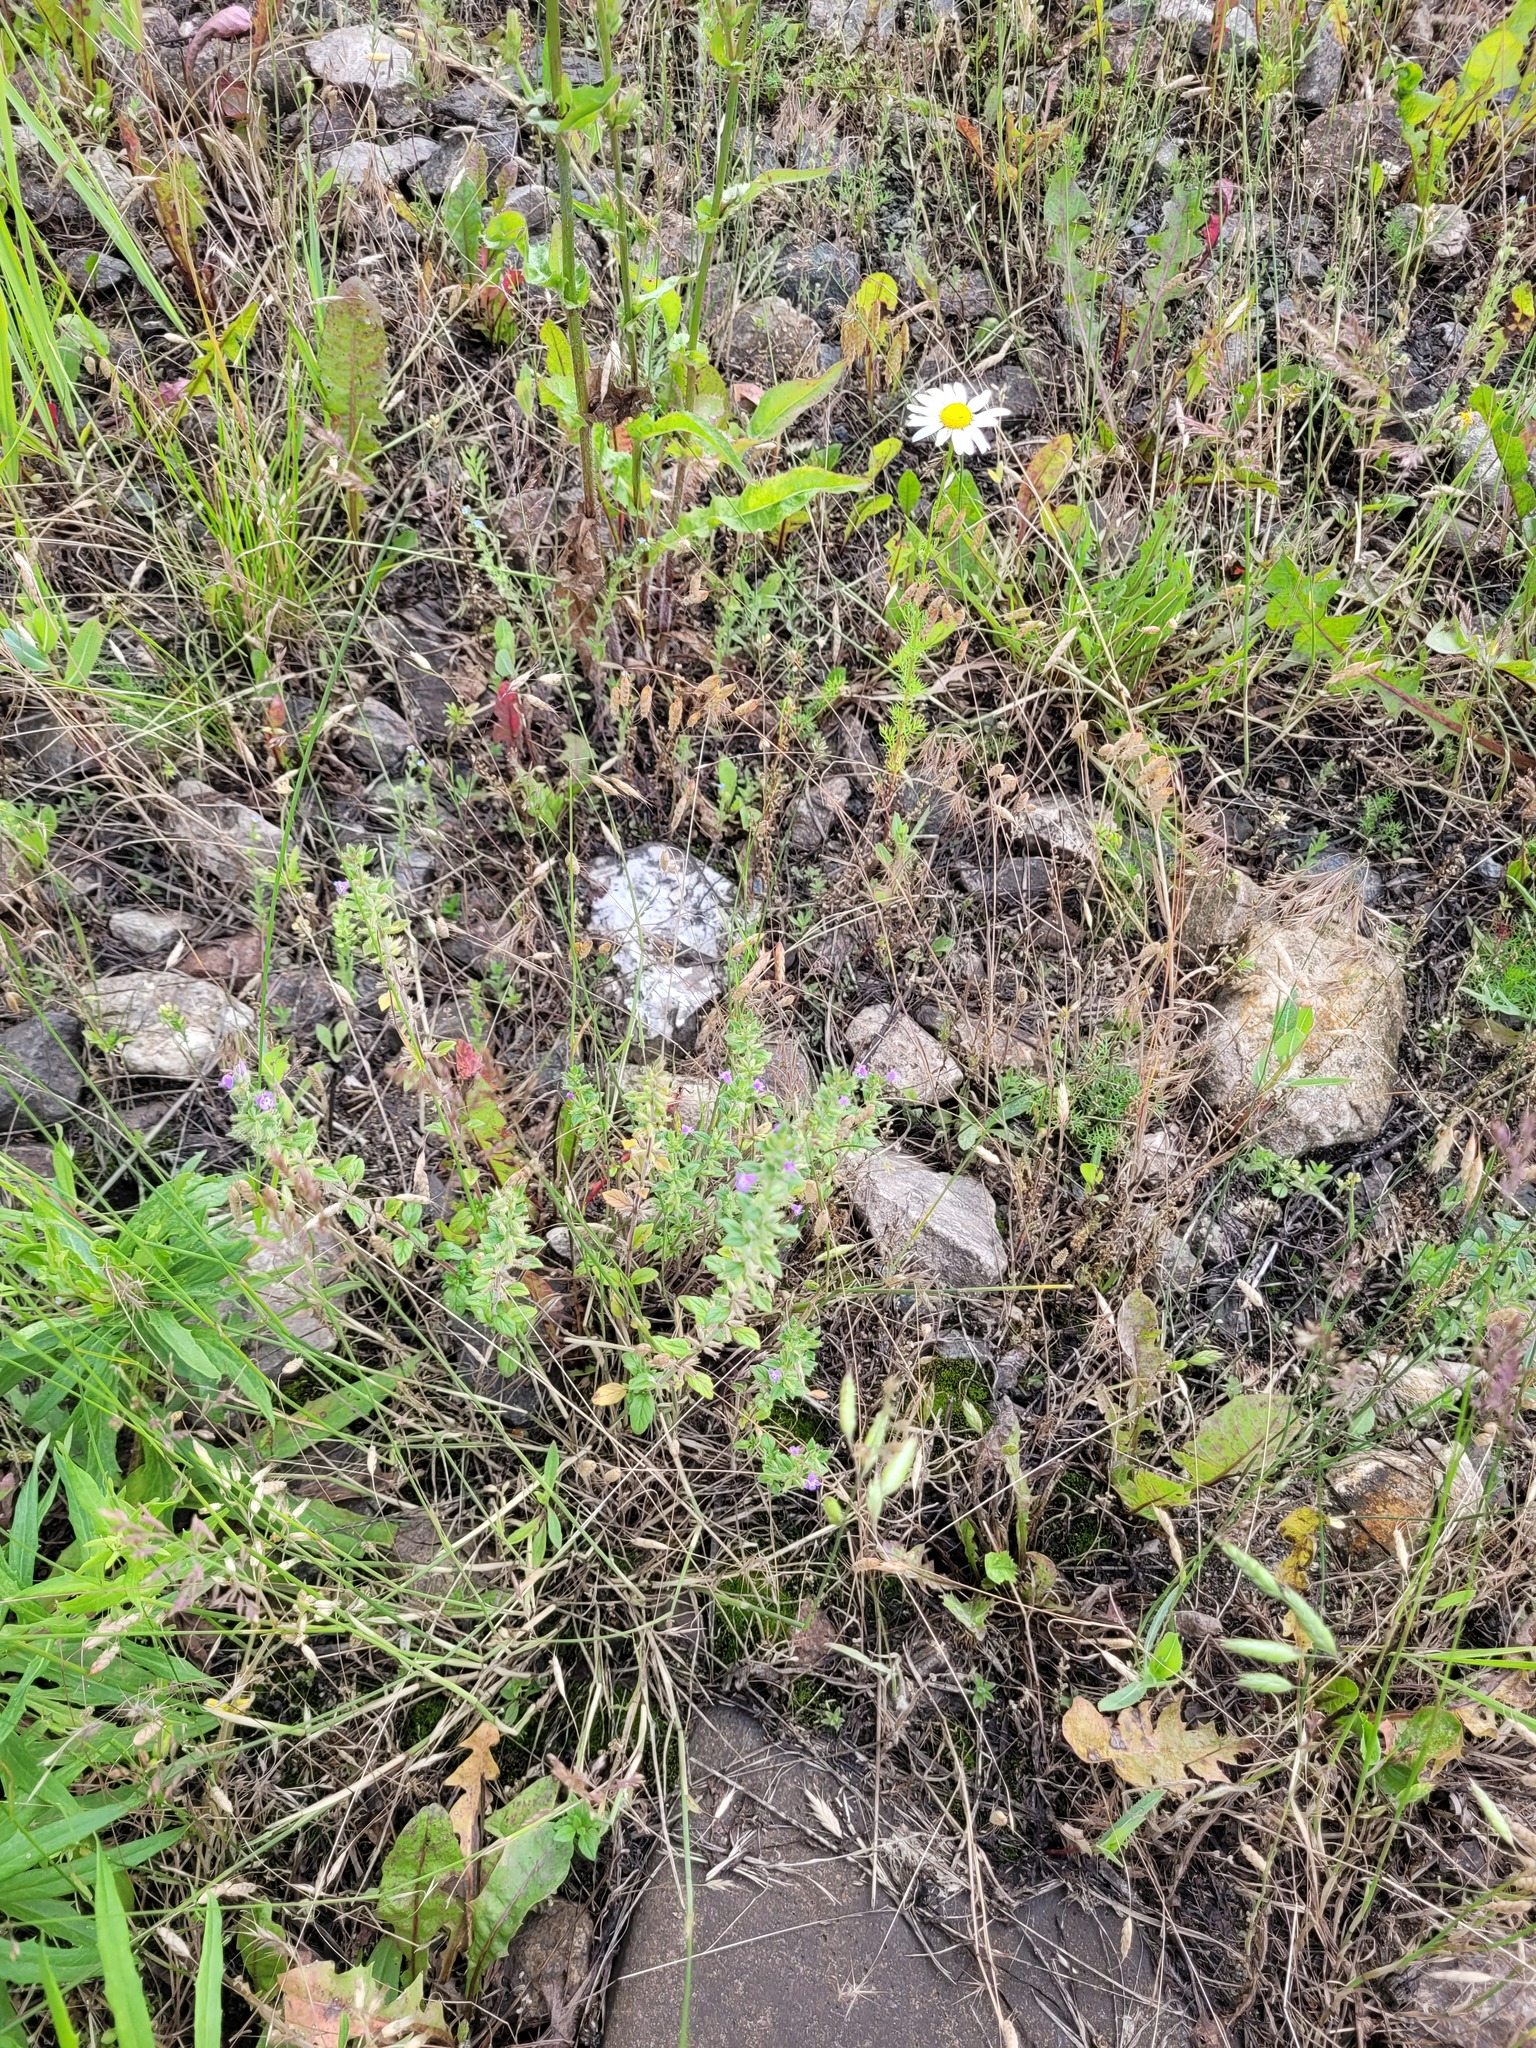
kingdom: Plantae
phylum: Tracheophyta
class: Magnoliopsida
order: Lamiales
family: Lamiaceae
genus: Clinopodium
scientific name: Clinopodium acinos
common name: Basil thyme
